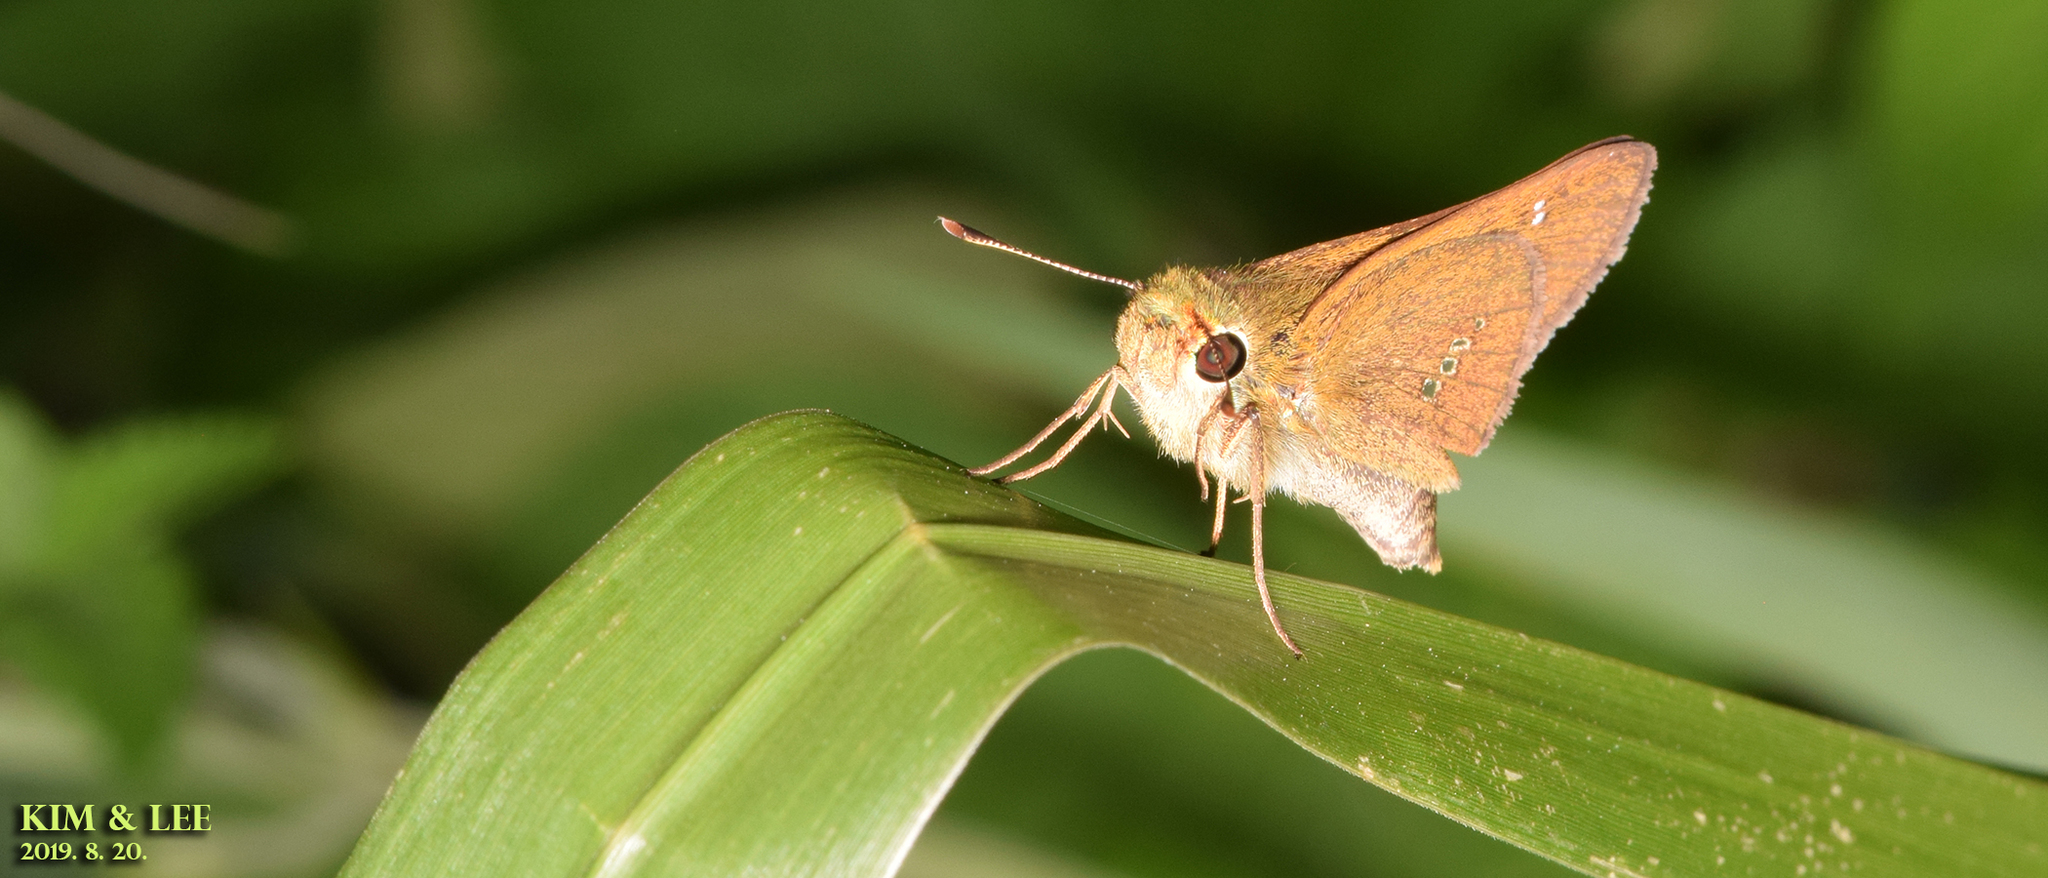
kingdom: Animalia
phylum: Arthropoda
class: Insecta
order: Lepidoptera
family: Hesperiidae
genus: Parnara
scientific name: Parnara guttatus
